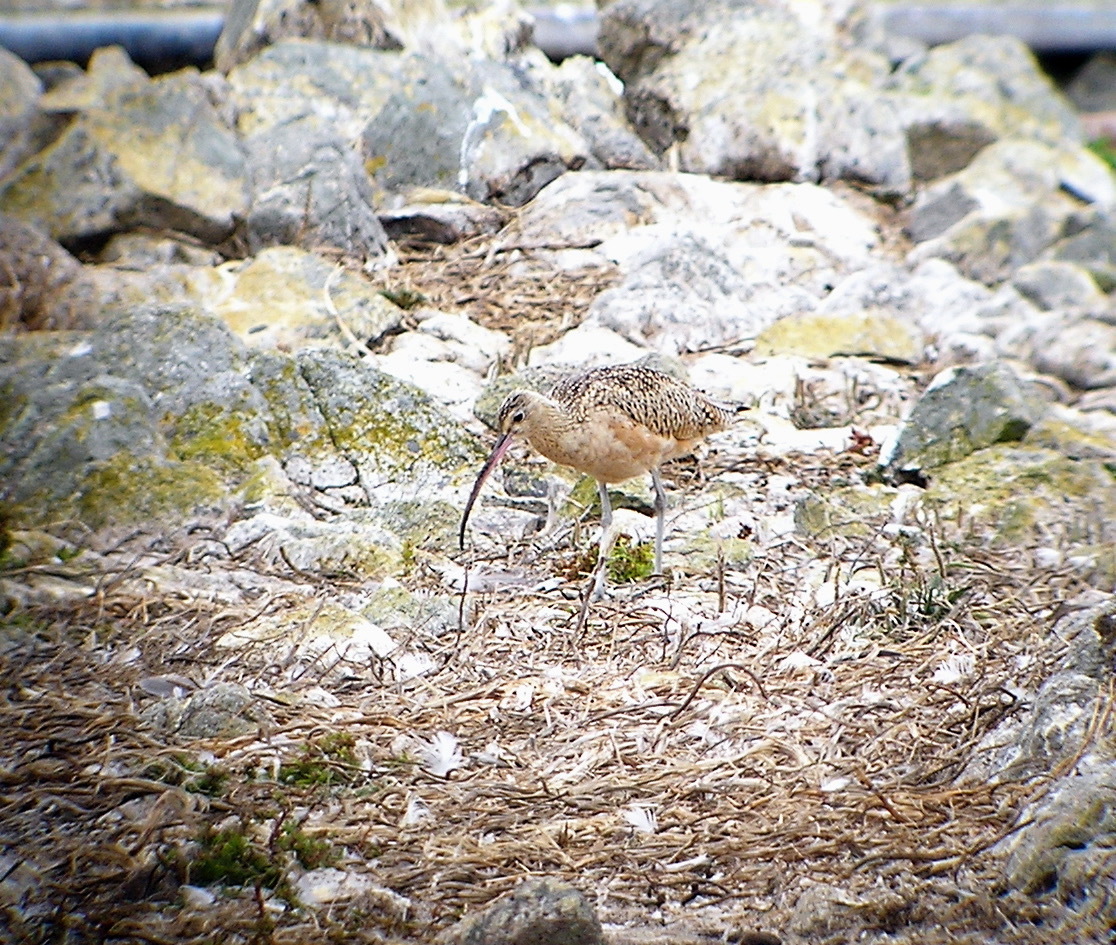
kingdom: Animalia
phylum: Chordata
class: Aves
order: Charadriiformes
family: Scolopacidae
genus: Numenius
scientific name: Numenius americanus
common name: Long-billed curlew
